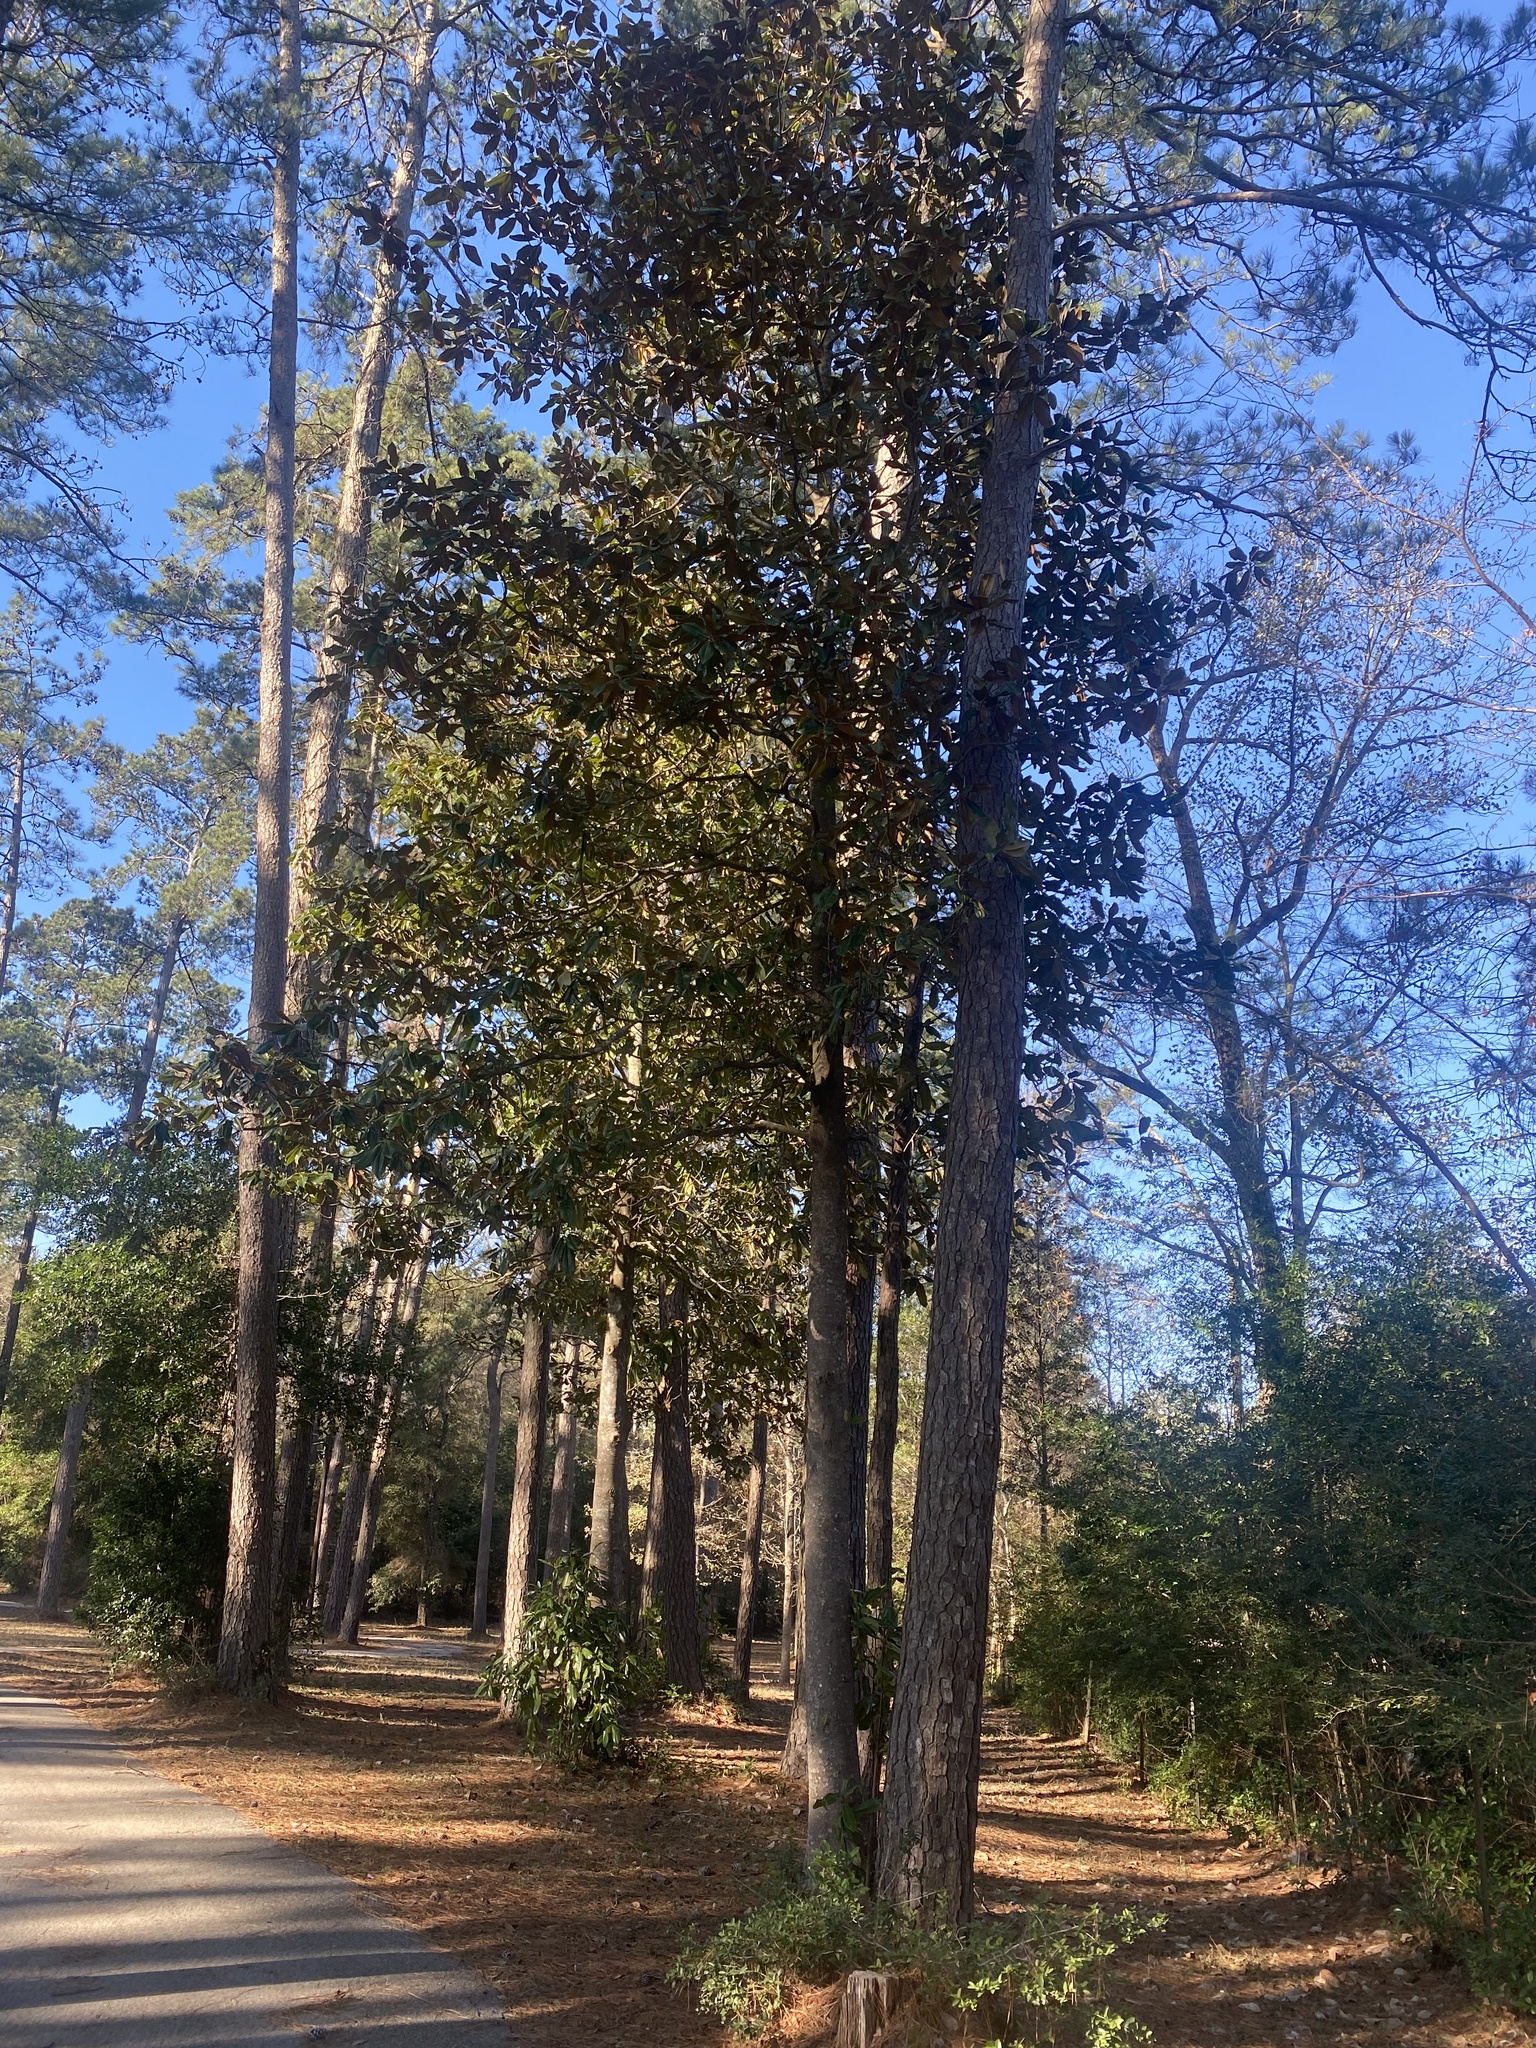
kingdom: Plantae
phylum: Tracheophyta
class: Magnoliopsida
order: Magnoliales
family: Magnoliaceae
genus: Magnolia
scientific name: Magnolia grandiflora
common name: Southern magnolia
